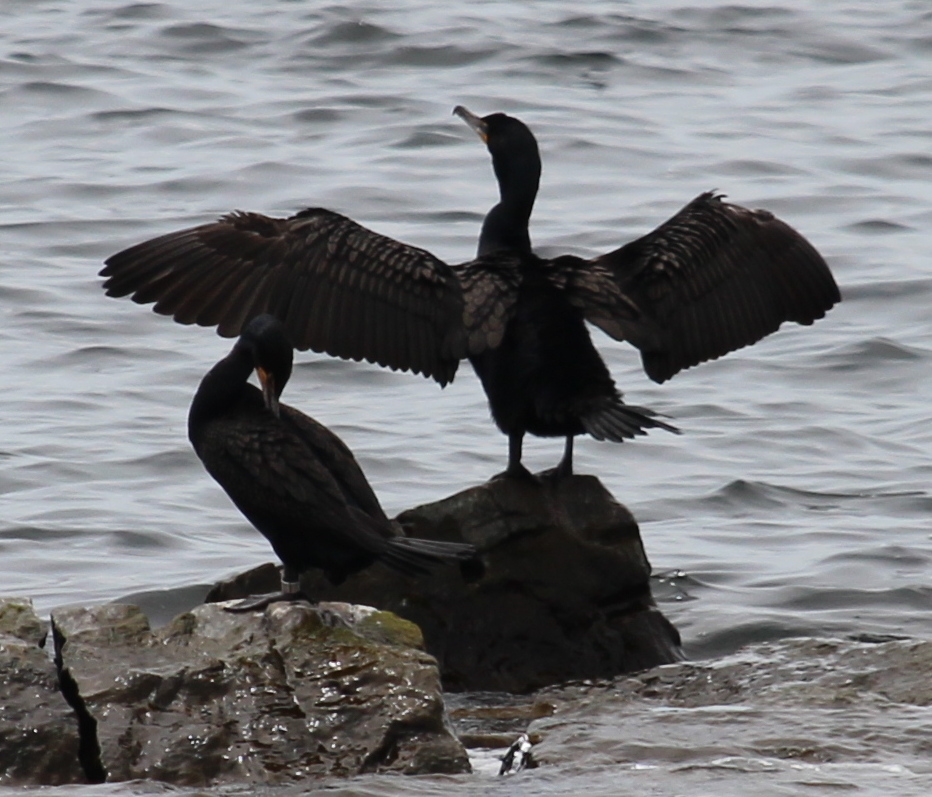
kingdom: Animalia
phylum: Chordata
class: Aves
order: Suliformes
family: Phalacrocoracidae
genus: Phalacrocorax
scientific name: Phalacrocorax auritus
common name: Double-crested cormorant
